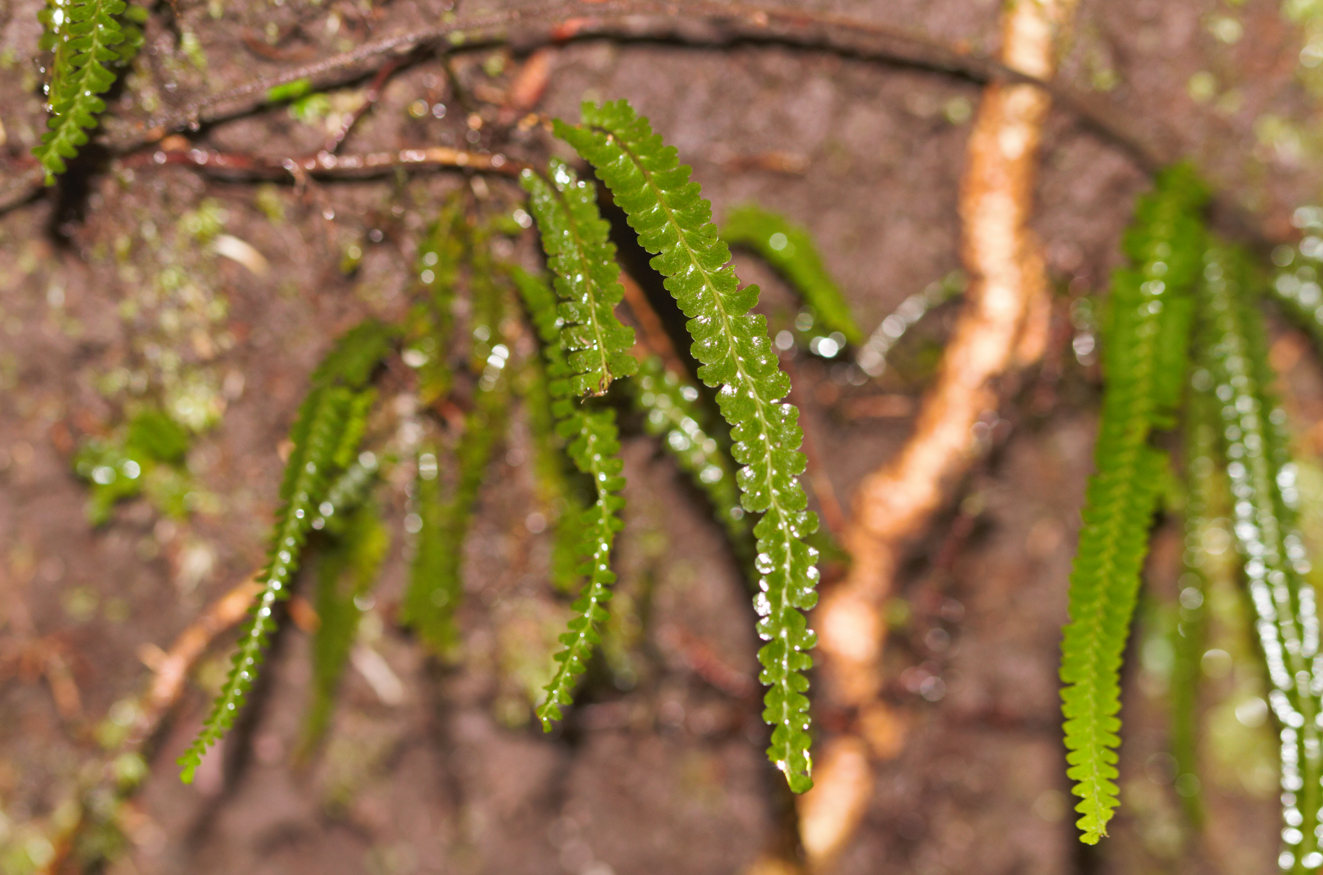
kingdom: Plantae
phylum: Tracheophyta
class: Polypodiopsida
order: Polypodiales
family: Lindsaeaceae
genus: Lindsaea
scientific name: Lindsaea guianensis
